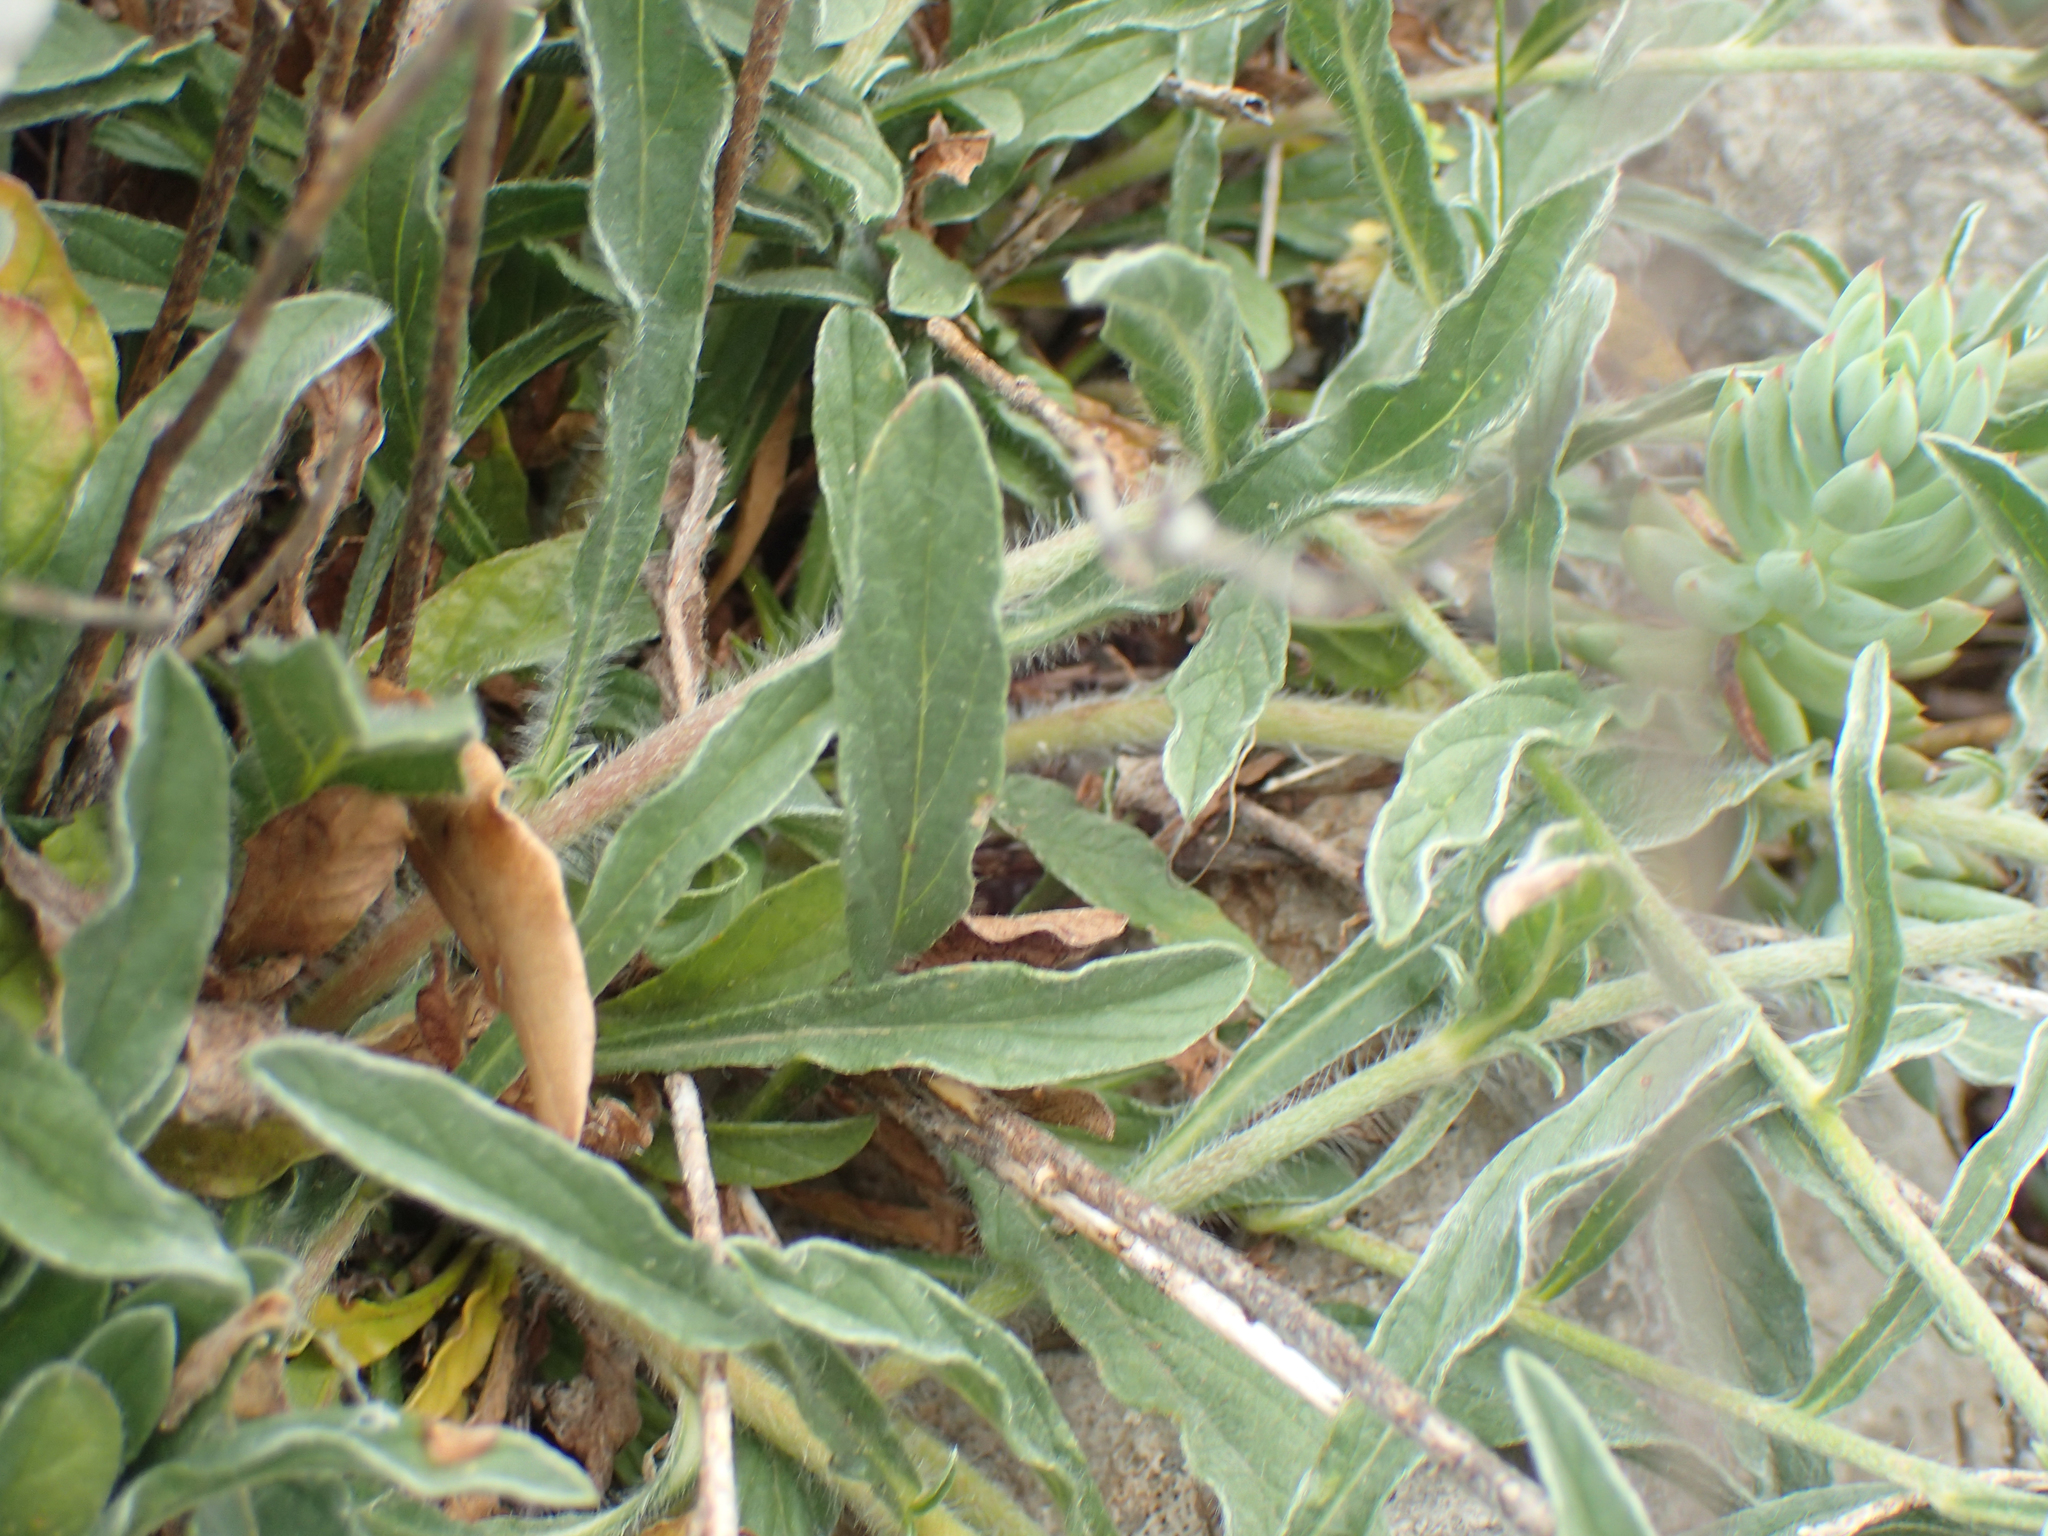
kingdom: Plantae
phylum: Tracheophyta
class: Magnoliopsida
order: Solanales
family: Convolvulaceae
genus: Convolvulus
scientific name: Convolvulus cantabrica
